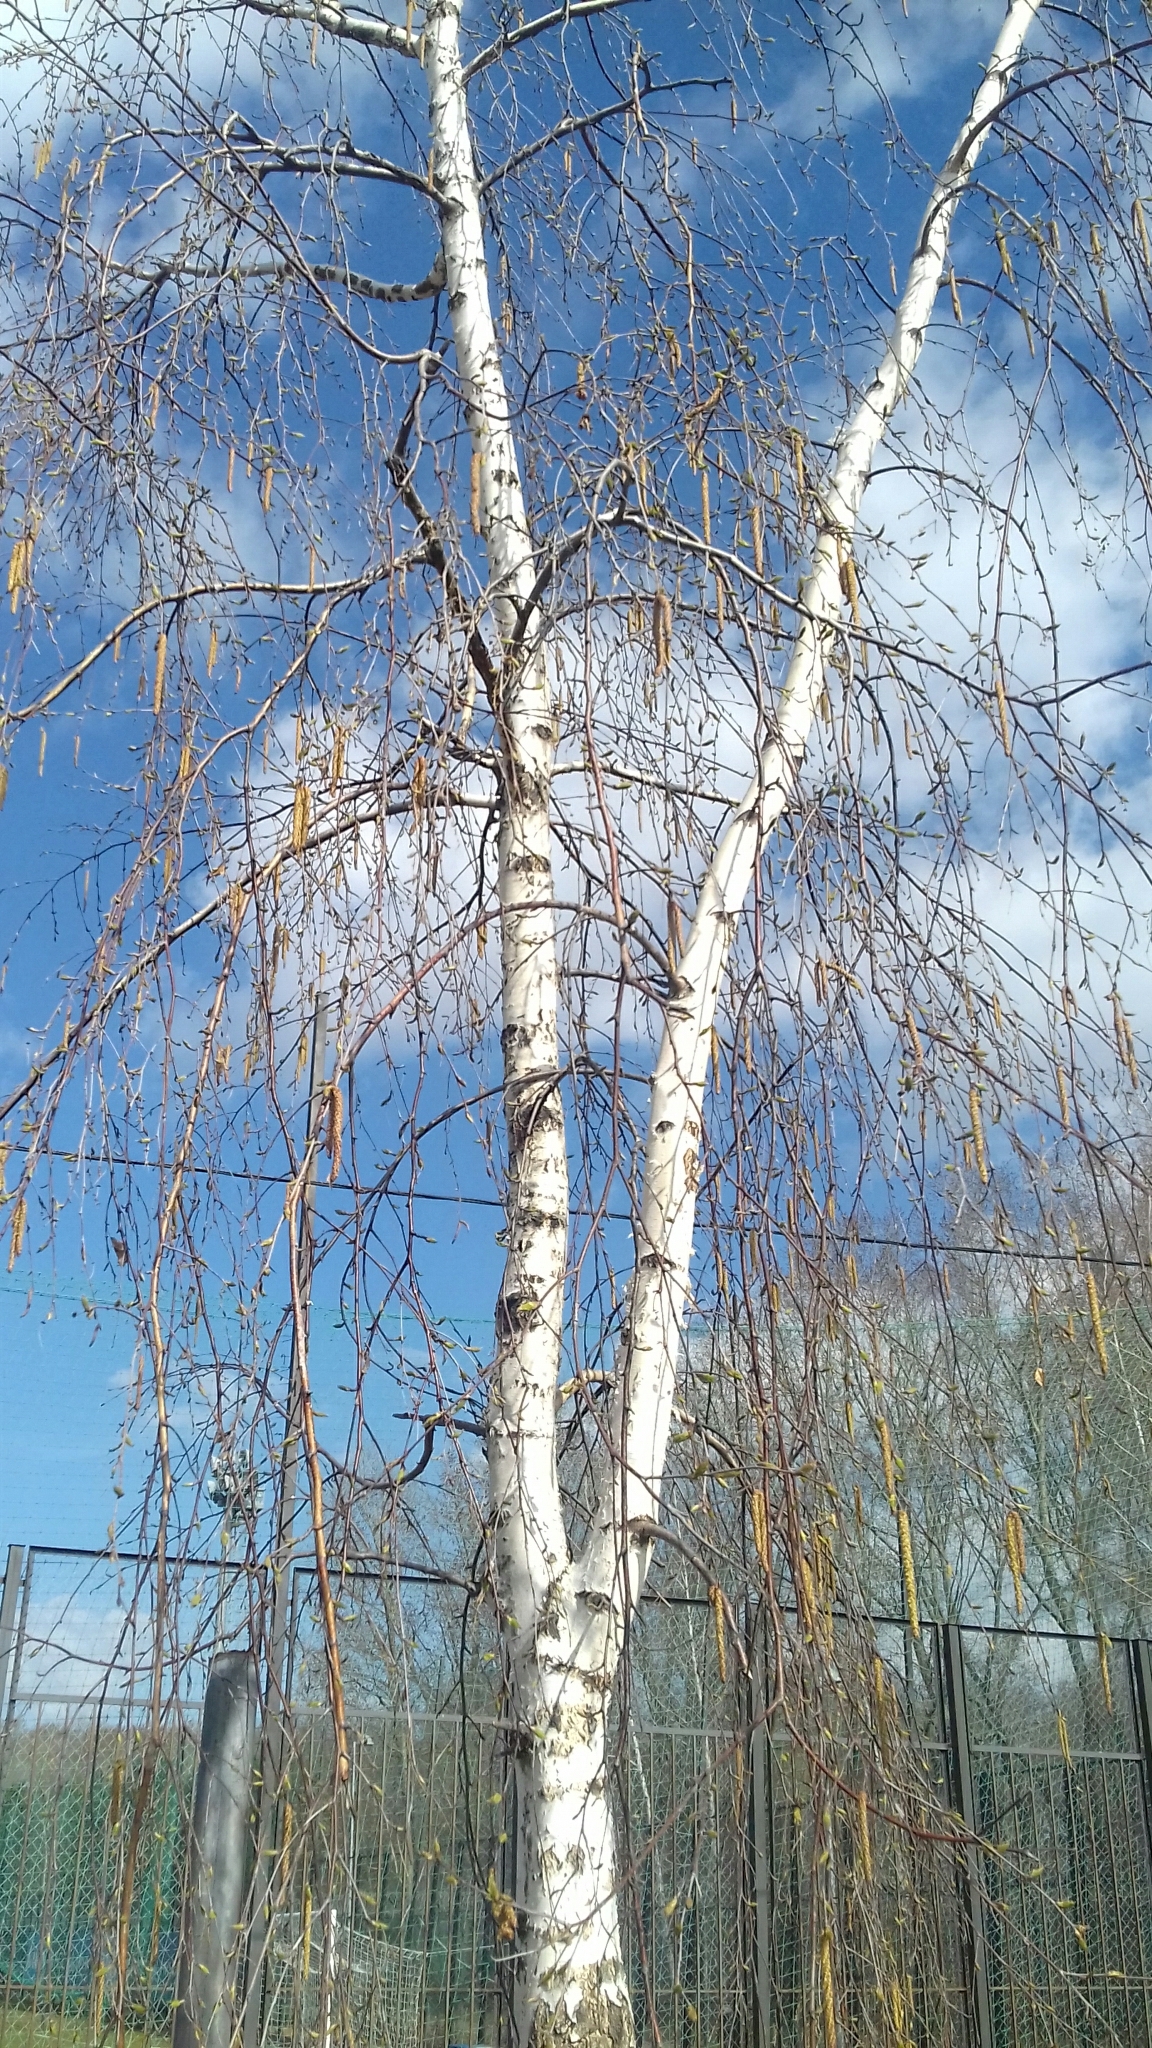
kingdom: Plantae
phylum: Tracheophyta
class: Magnoliopsida
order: Fagales
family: Betulaceae
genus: Betula
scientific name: Betula pendula
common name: Silver birch
